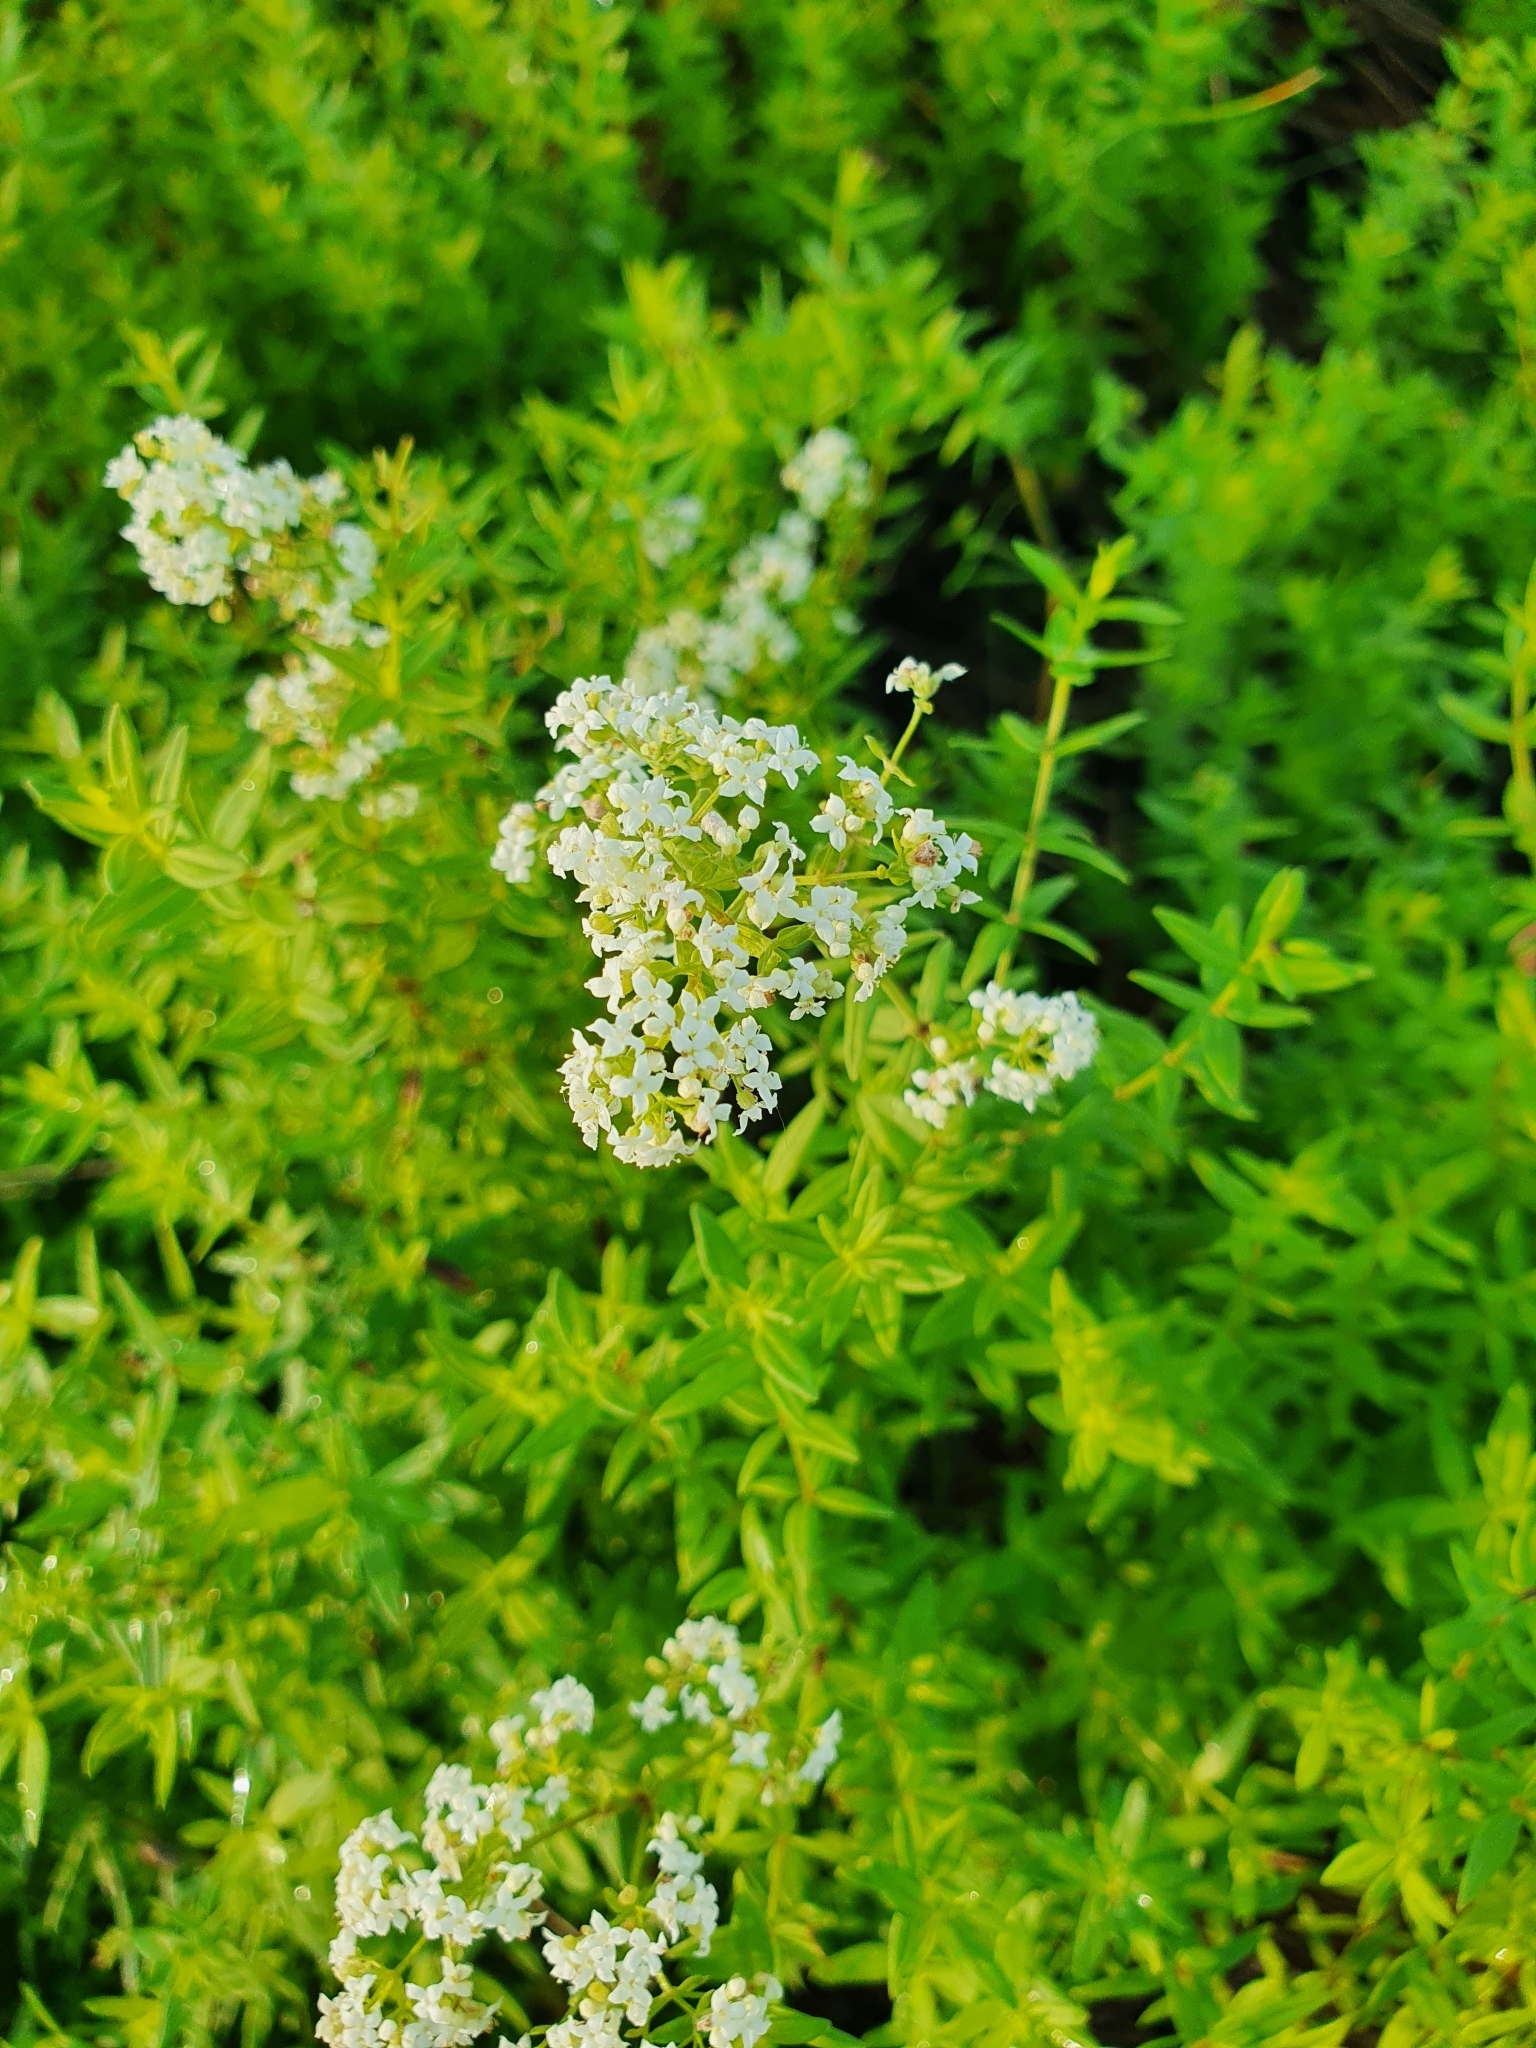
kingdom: Plantae
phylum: Tracheophyta
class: Magnoliopsida
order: Gentianales
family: Rubiaceae
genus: Galium
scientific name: Galium boreale
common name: Northern bedstraw
